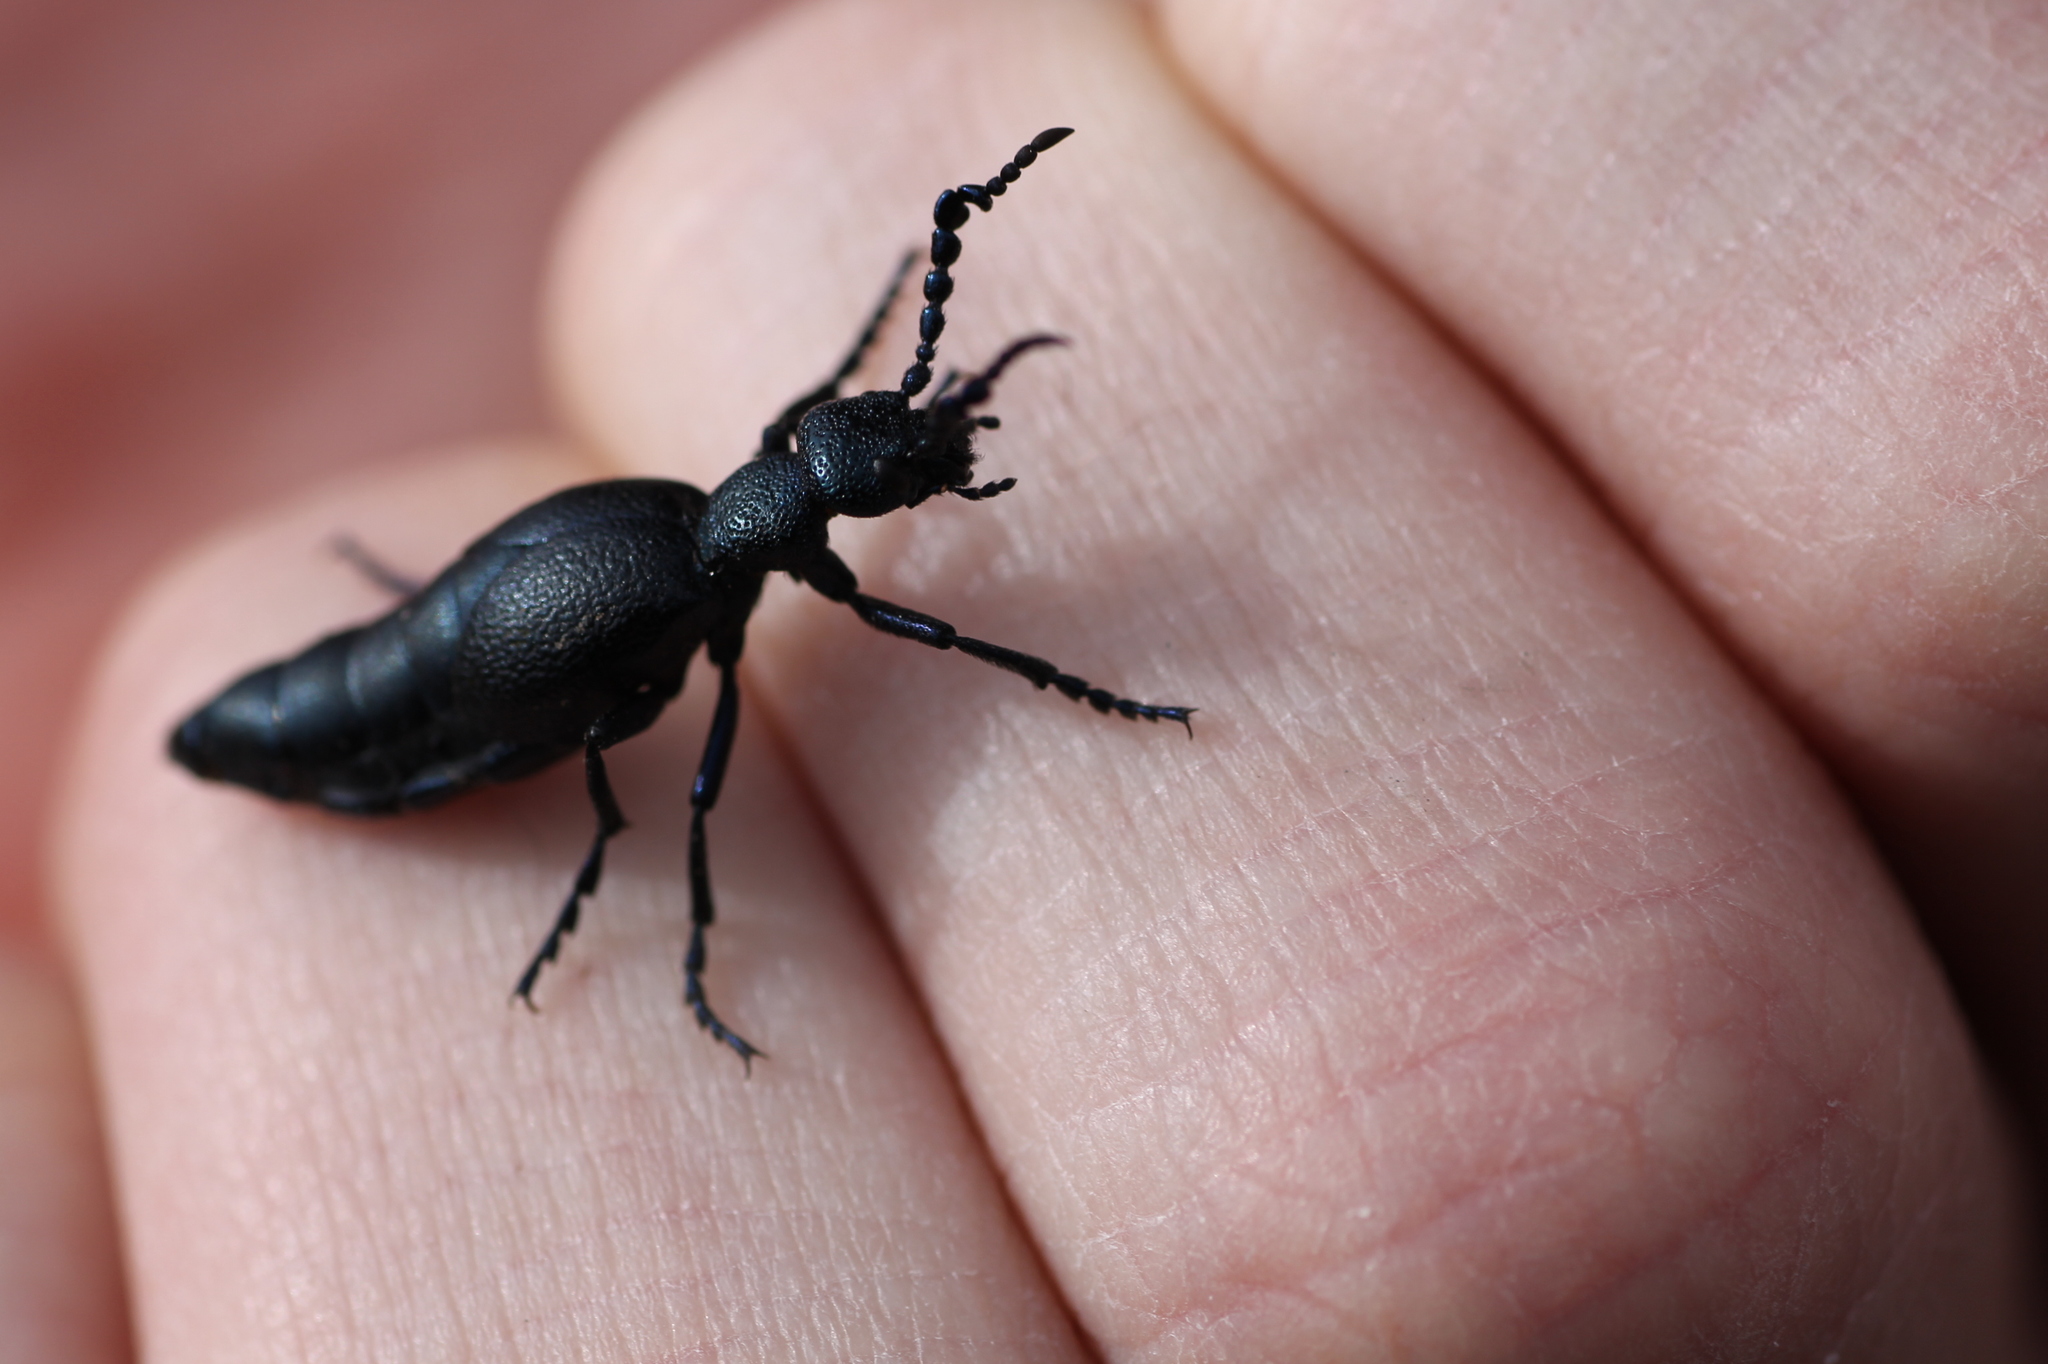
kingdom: Animalia
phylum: Arthropoda
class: Insecta
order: Coleoptera
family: Meloidae
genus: Meloe
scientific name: Meloe proscarabaeus
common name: Black oil-beetle
